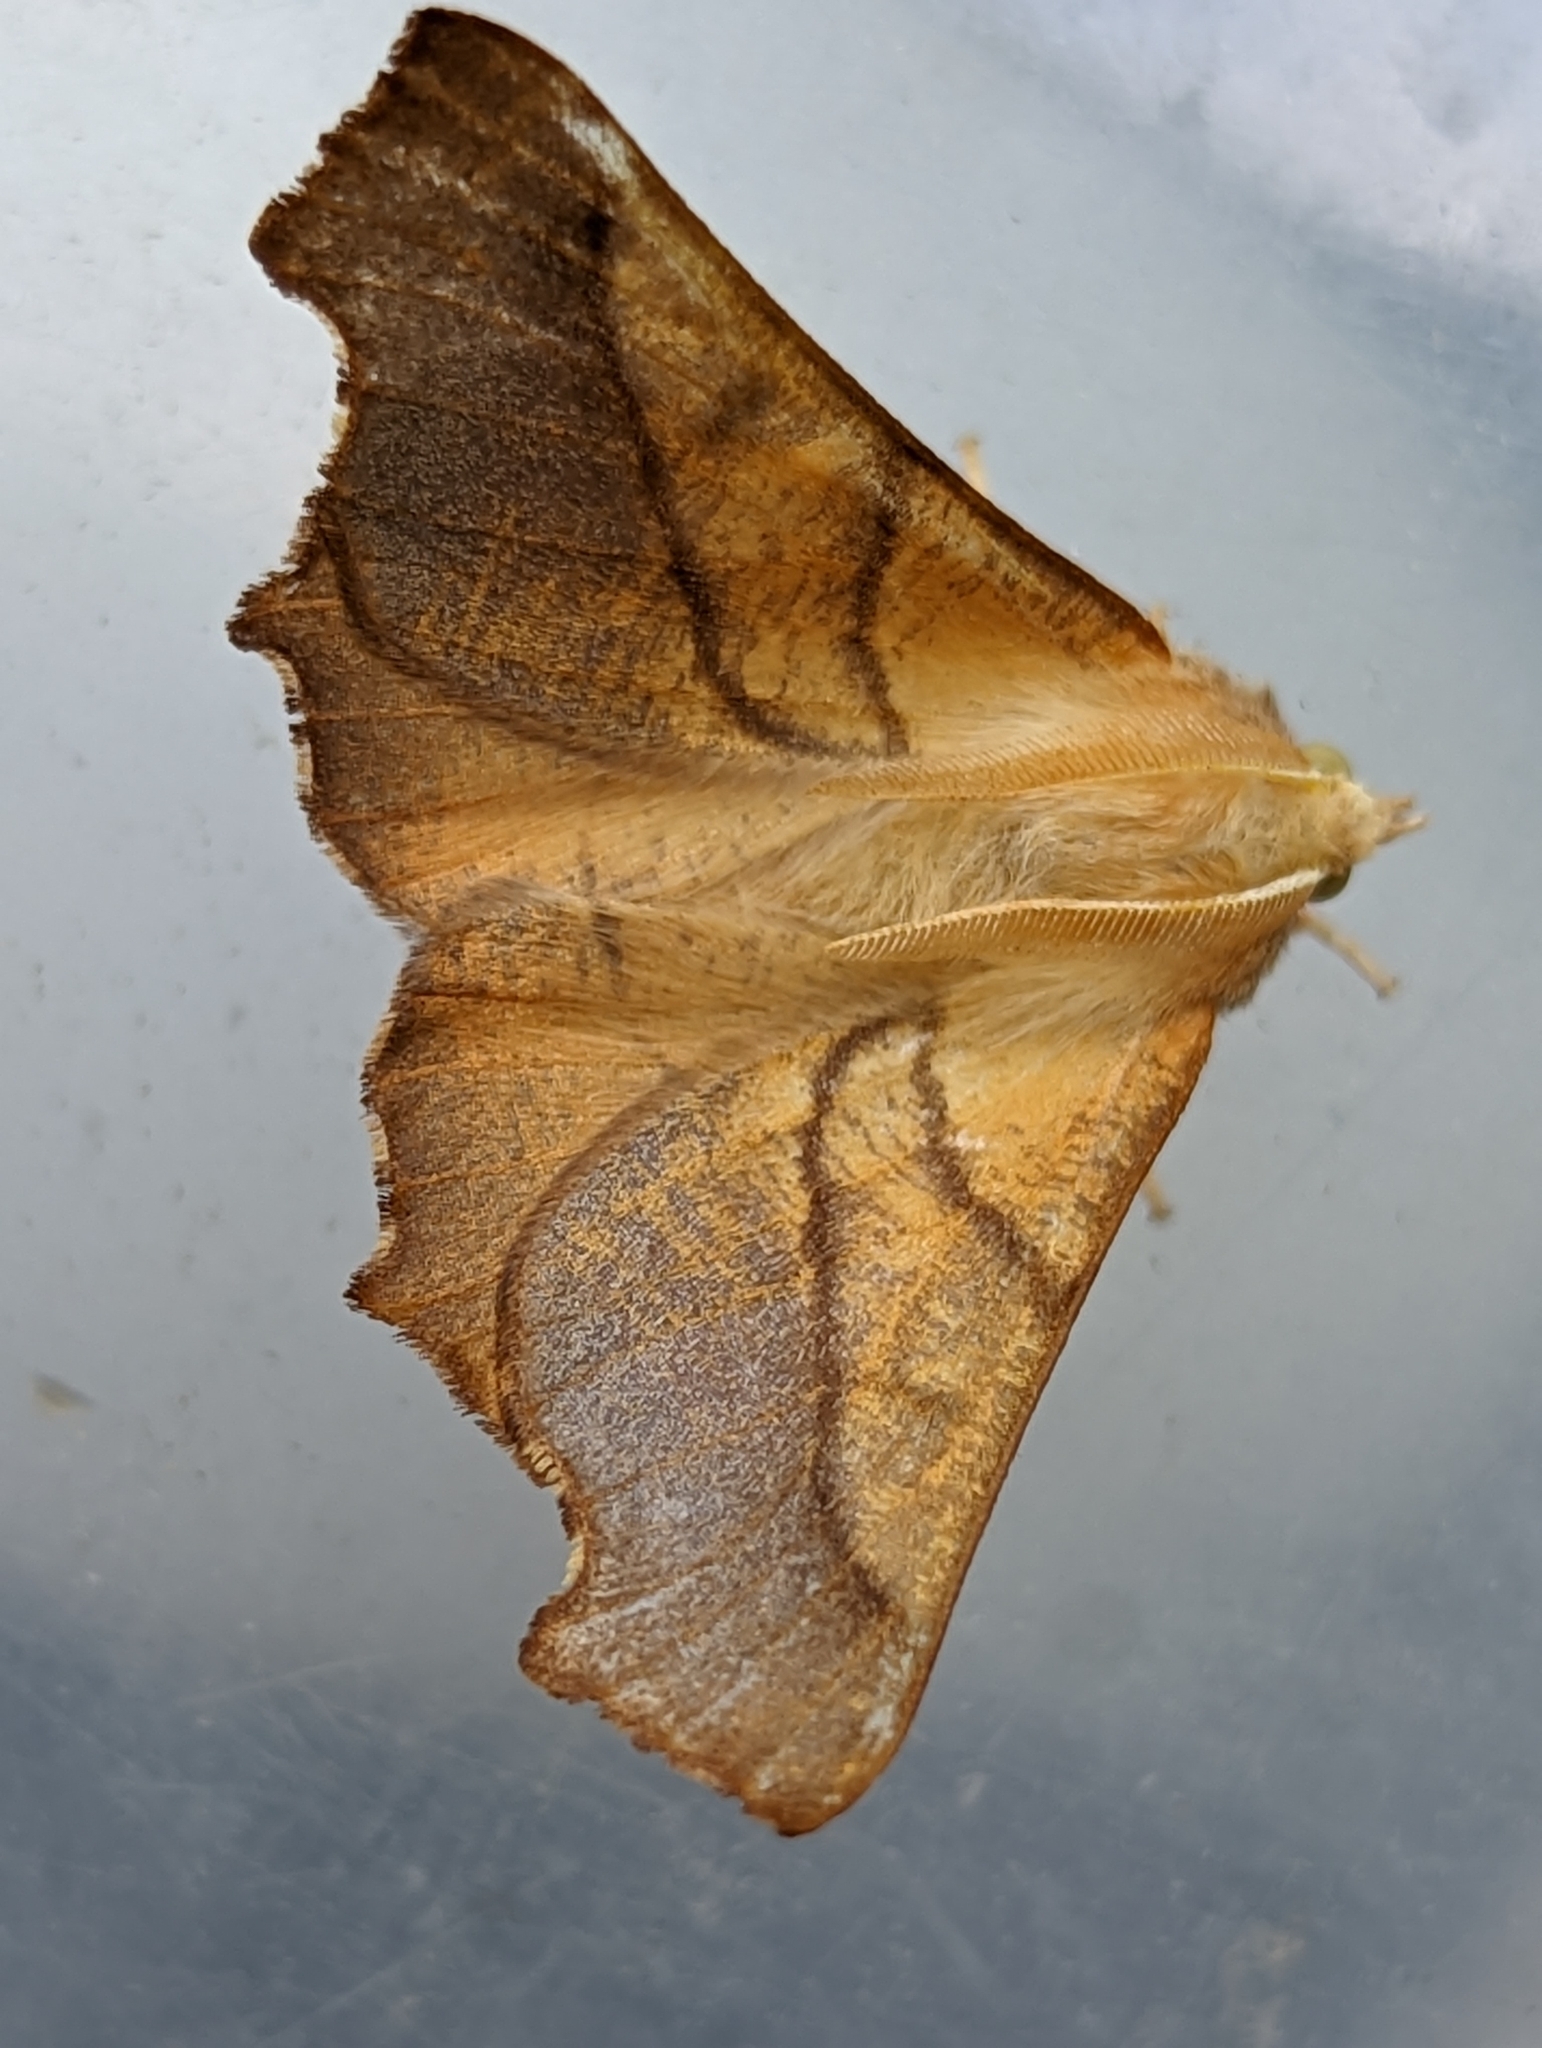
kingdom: Animalia
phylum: Arthropoda
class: Insecta
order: Lepidoptera
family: Geometridae
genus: Ennomos
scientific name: Ennomos fuscantaria
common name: Dusky thorn
